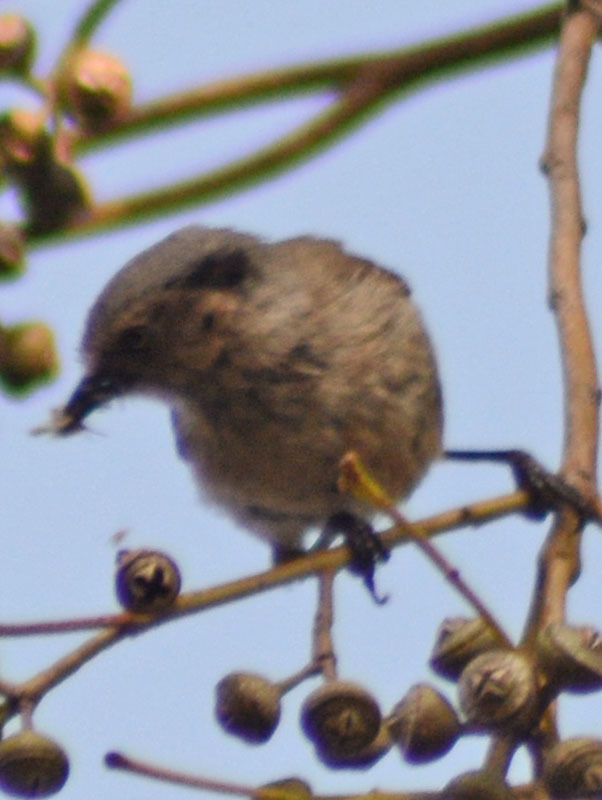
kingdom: Animalia
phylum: Chordata
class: Aves
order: Passeriformes
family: Aegithalidae
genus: Psaltriparus
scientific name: Psaltriparus minimus
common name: American bushtit
